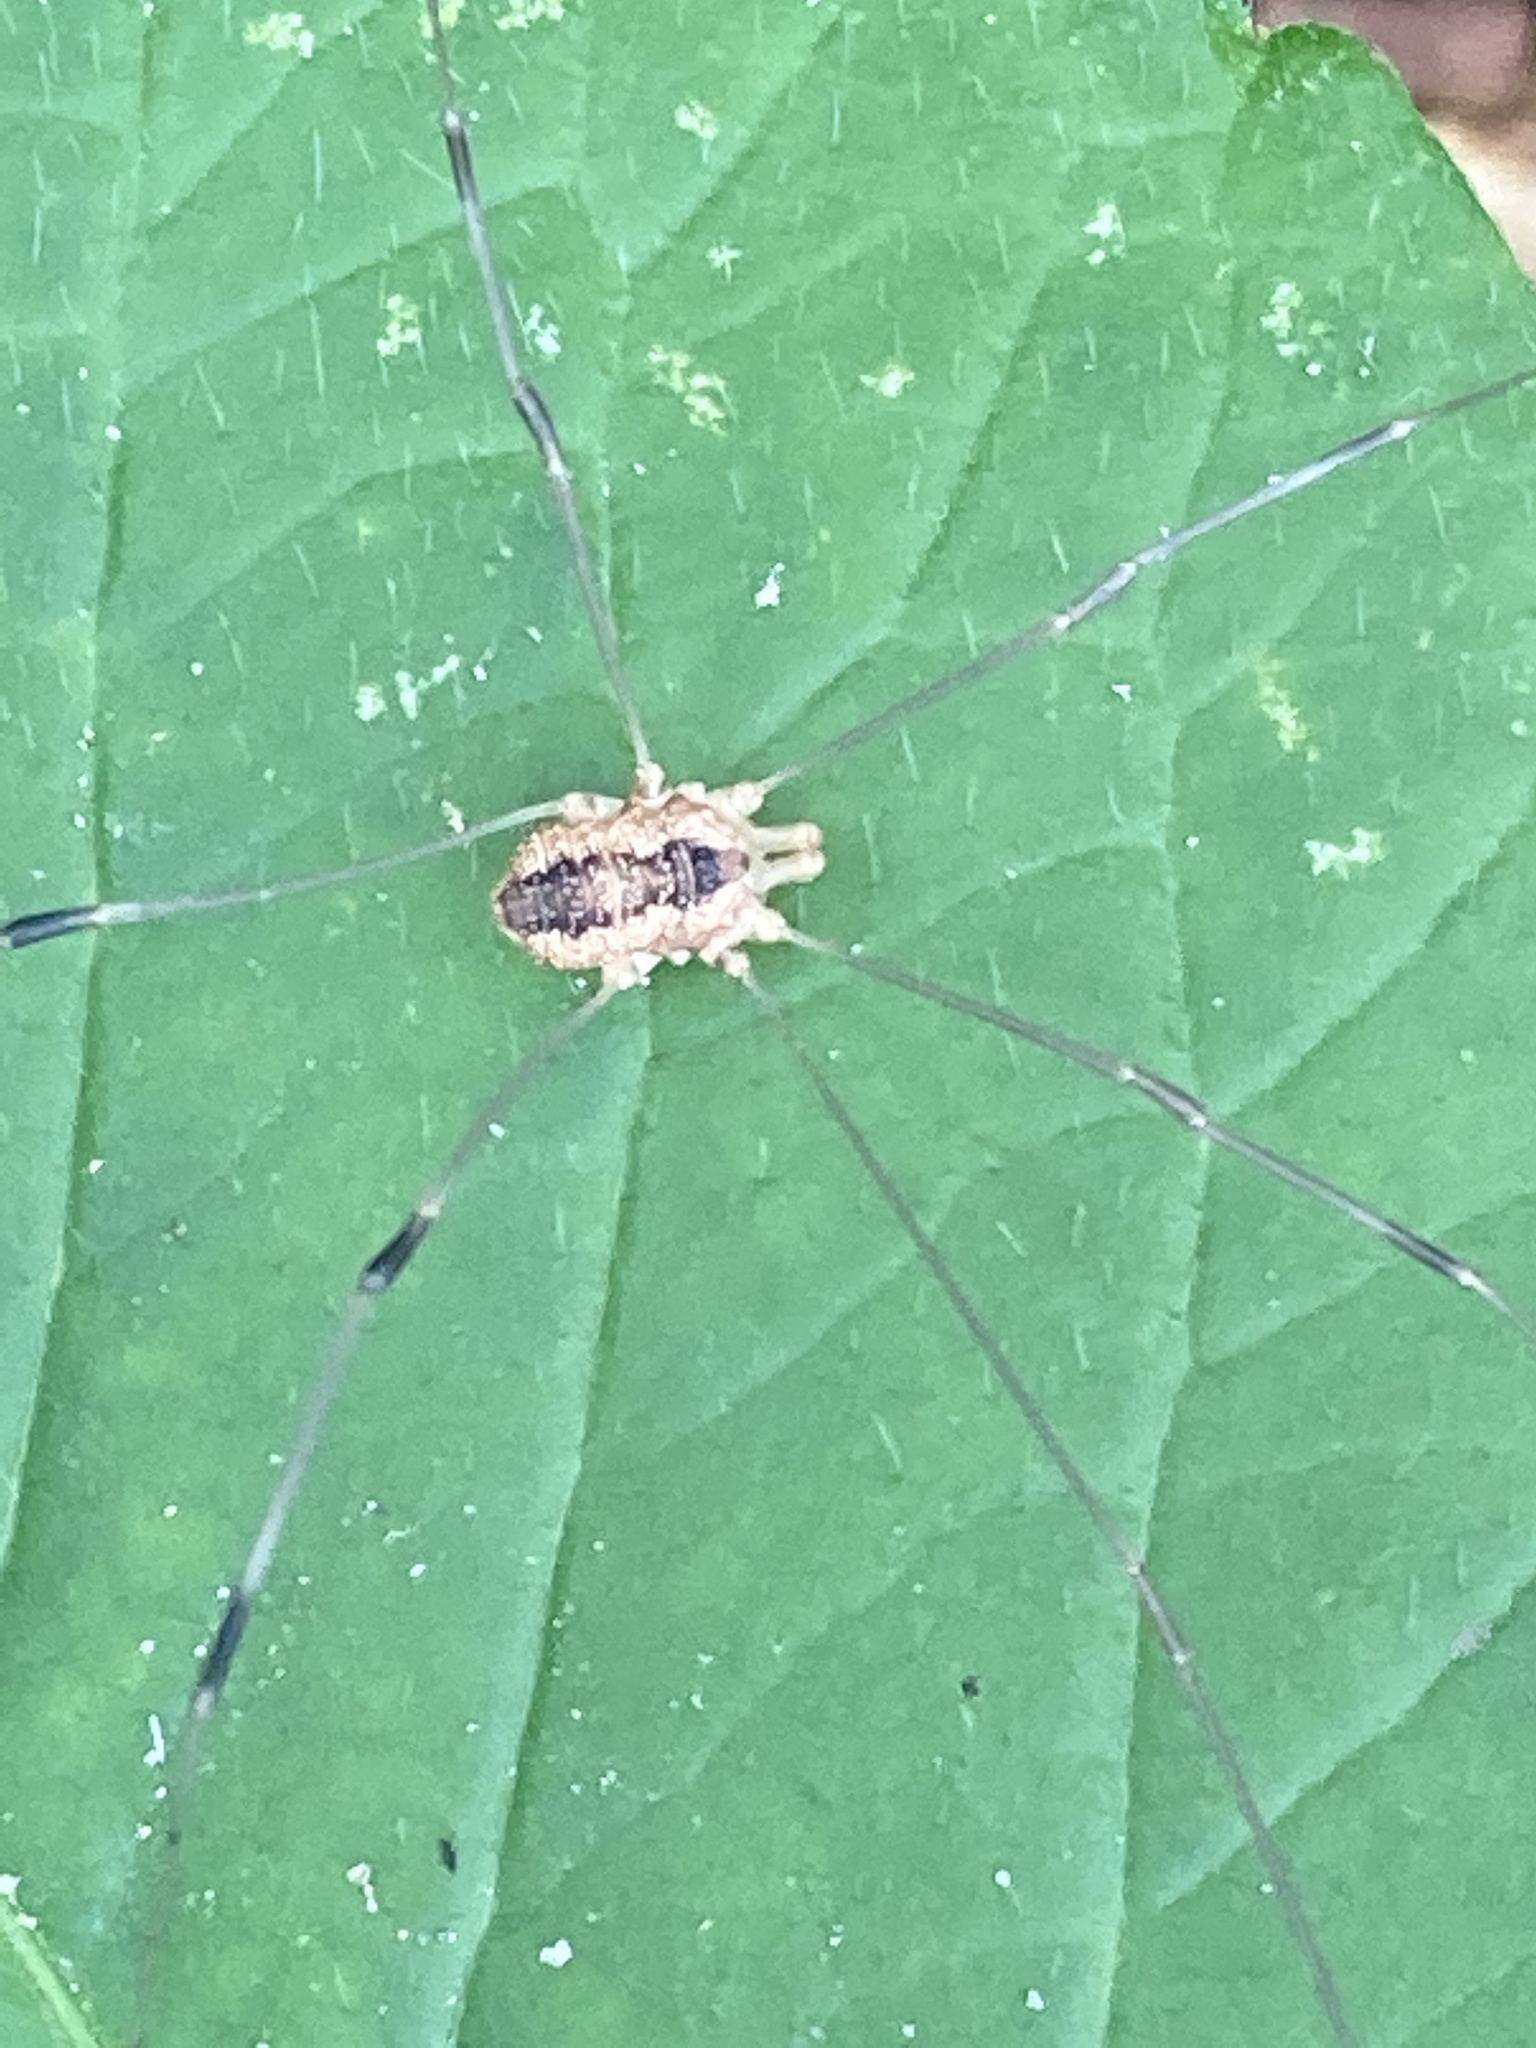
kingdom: Animalia
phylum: Arthropoda
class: Arachnida
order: Opiliones
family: Sclerosomatidae
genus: Leiobunum
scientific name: Leiobunum vittatum
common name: Eastern harvestman
